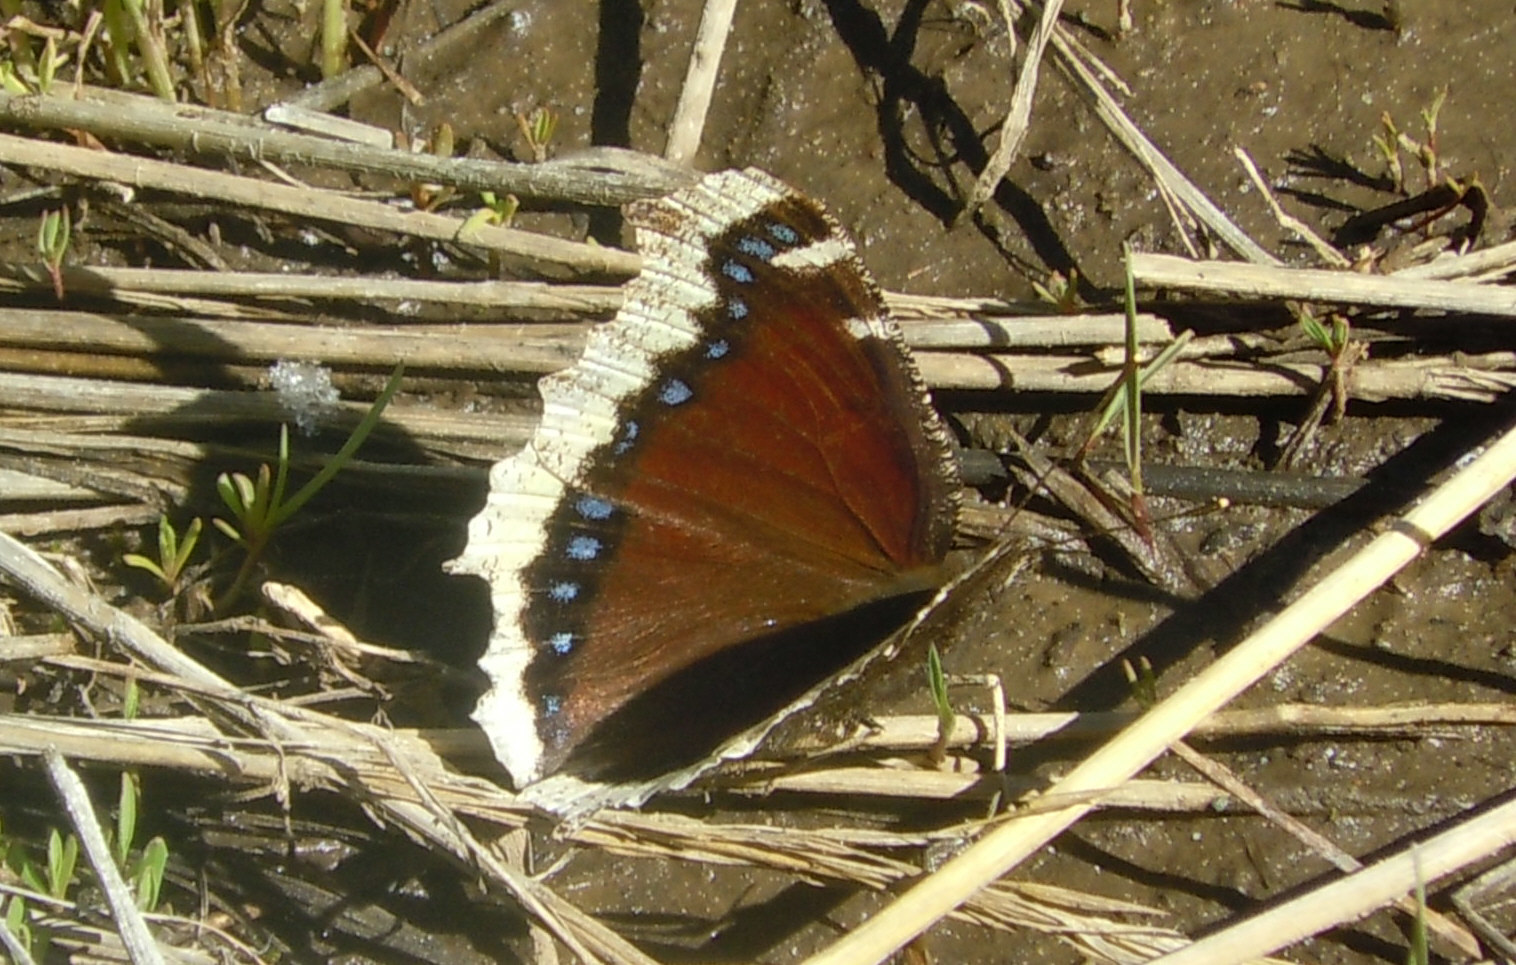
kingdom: Animalia
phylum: Arthropoda
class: Insecta
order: Lepidoptera
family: Nymphalidae
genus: Nymphalis
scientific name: Nymphalis antiopa
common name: Camberwell beauty
